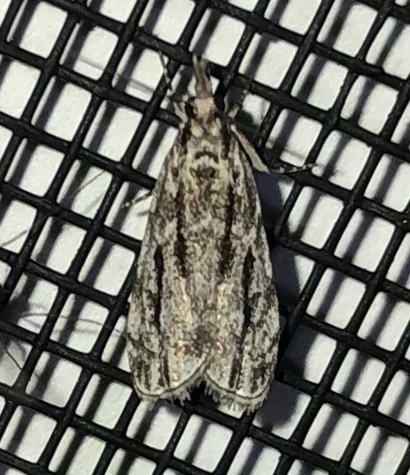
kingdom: Animalia
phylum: Arthropoda
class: Insecta
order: Lepidoptera
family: Crambidae
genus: Eudonia
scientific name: Eudonia strigalis
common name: Striped eudonia moth
